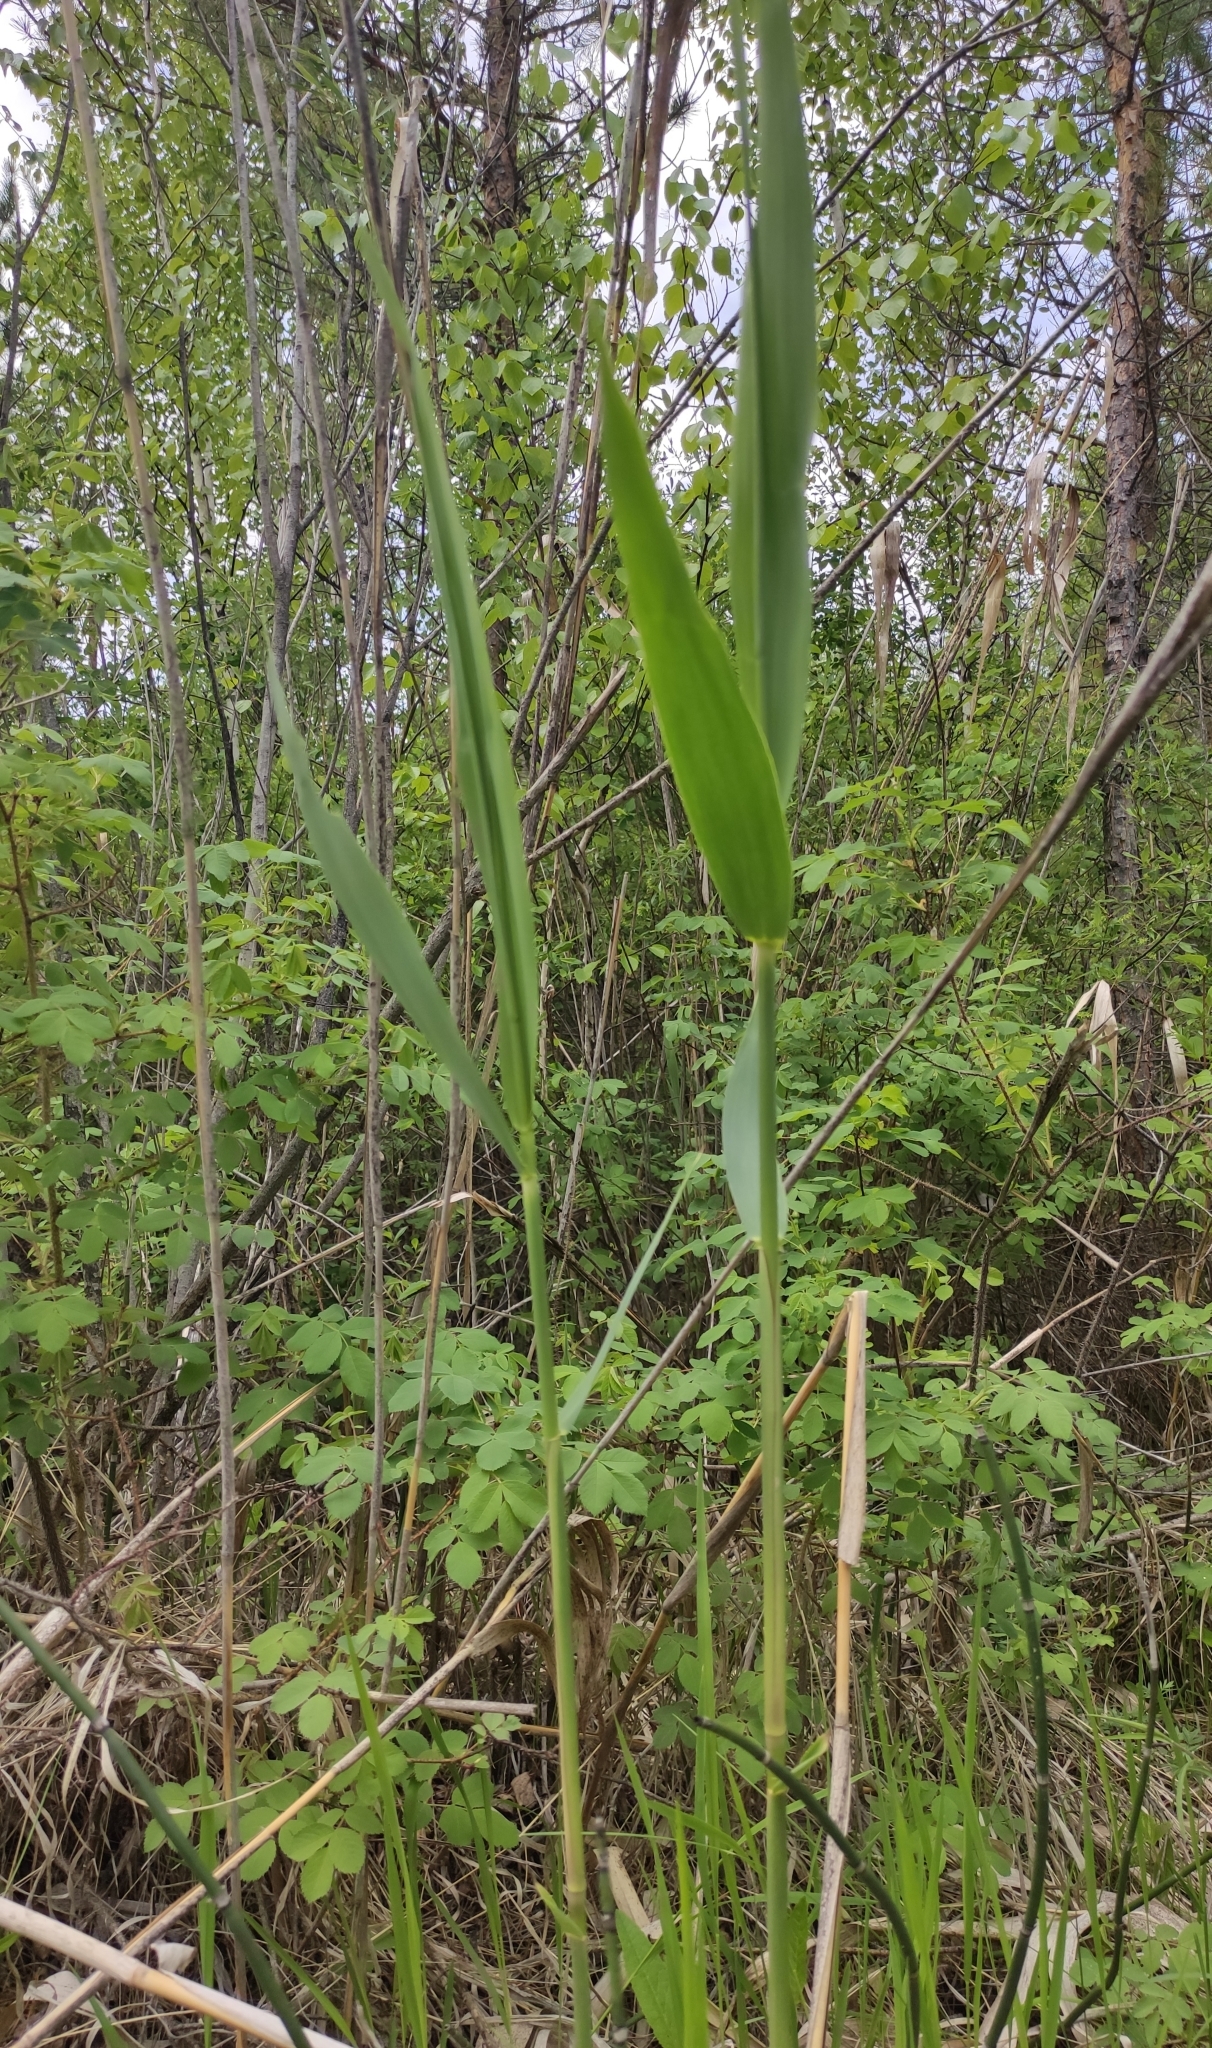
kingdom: Plantae
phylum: Tracheophyta
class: Liliopsida
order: Poales
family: Poaceae
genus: Phragmites
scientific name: Phragmites australis
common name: Common reed
